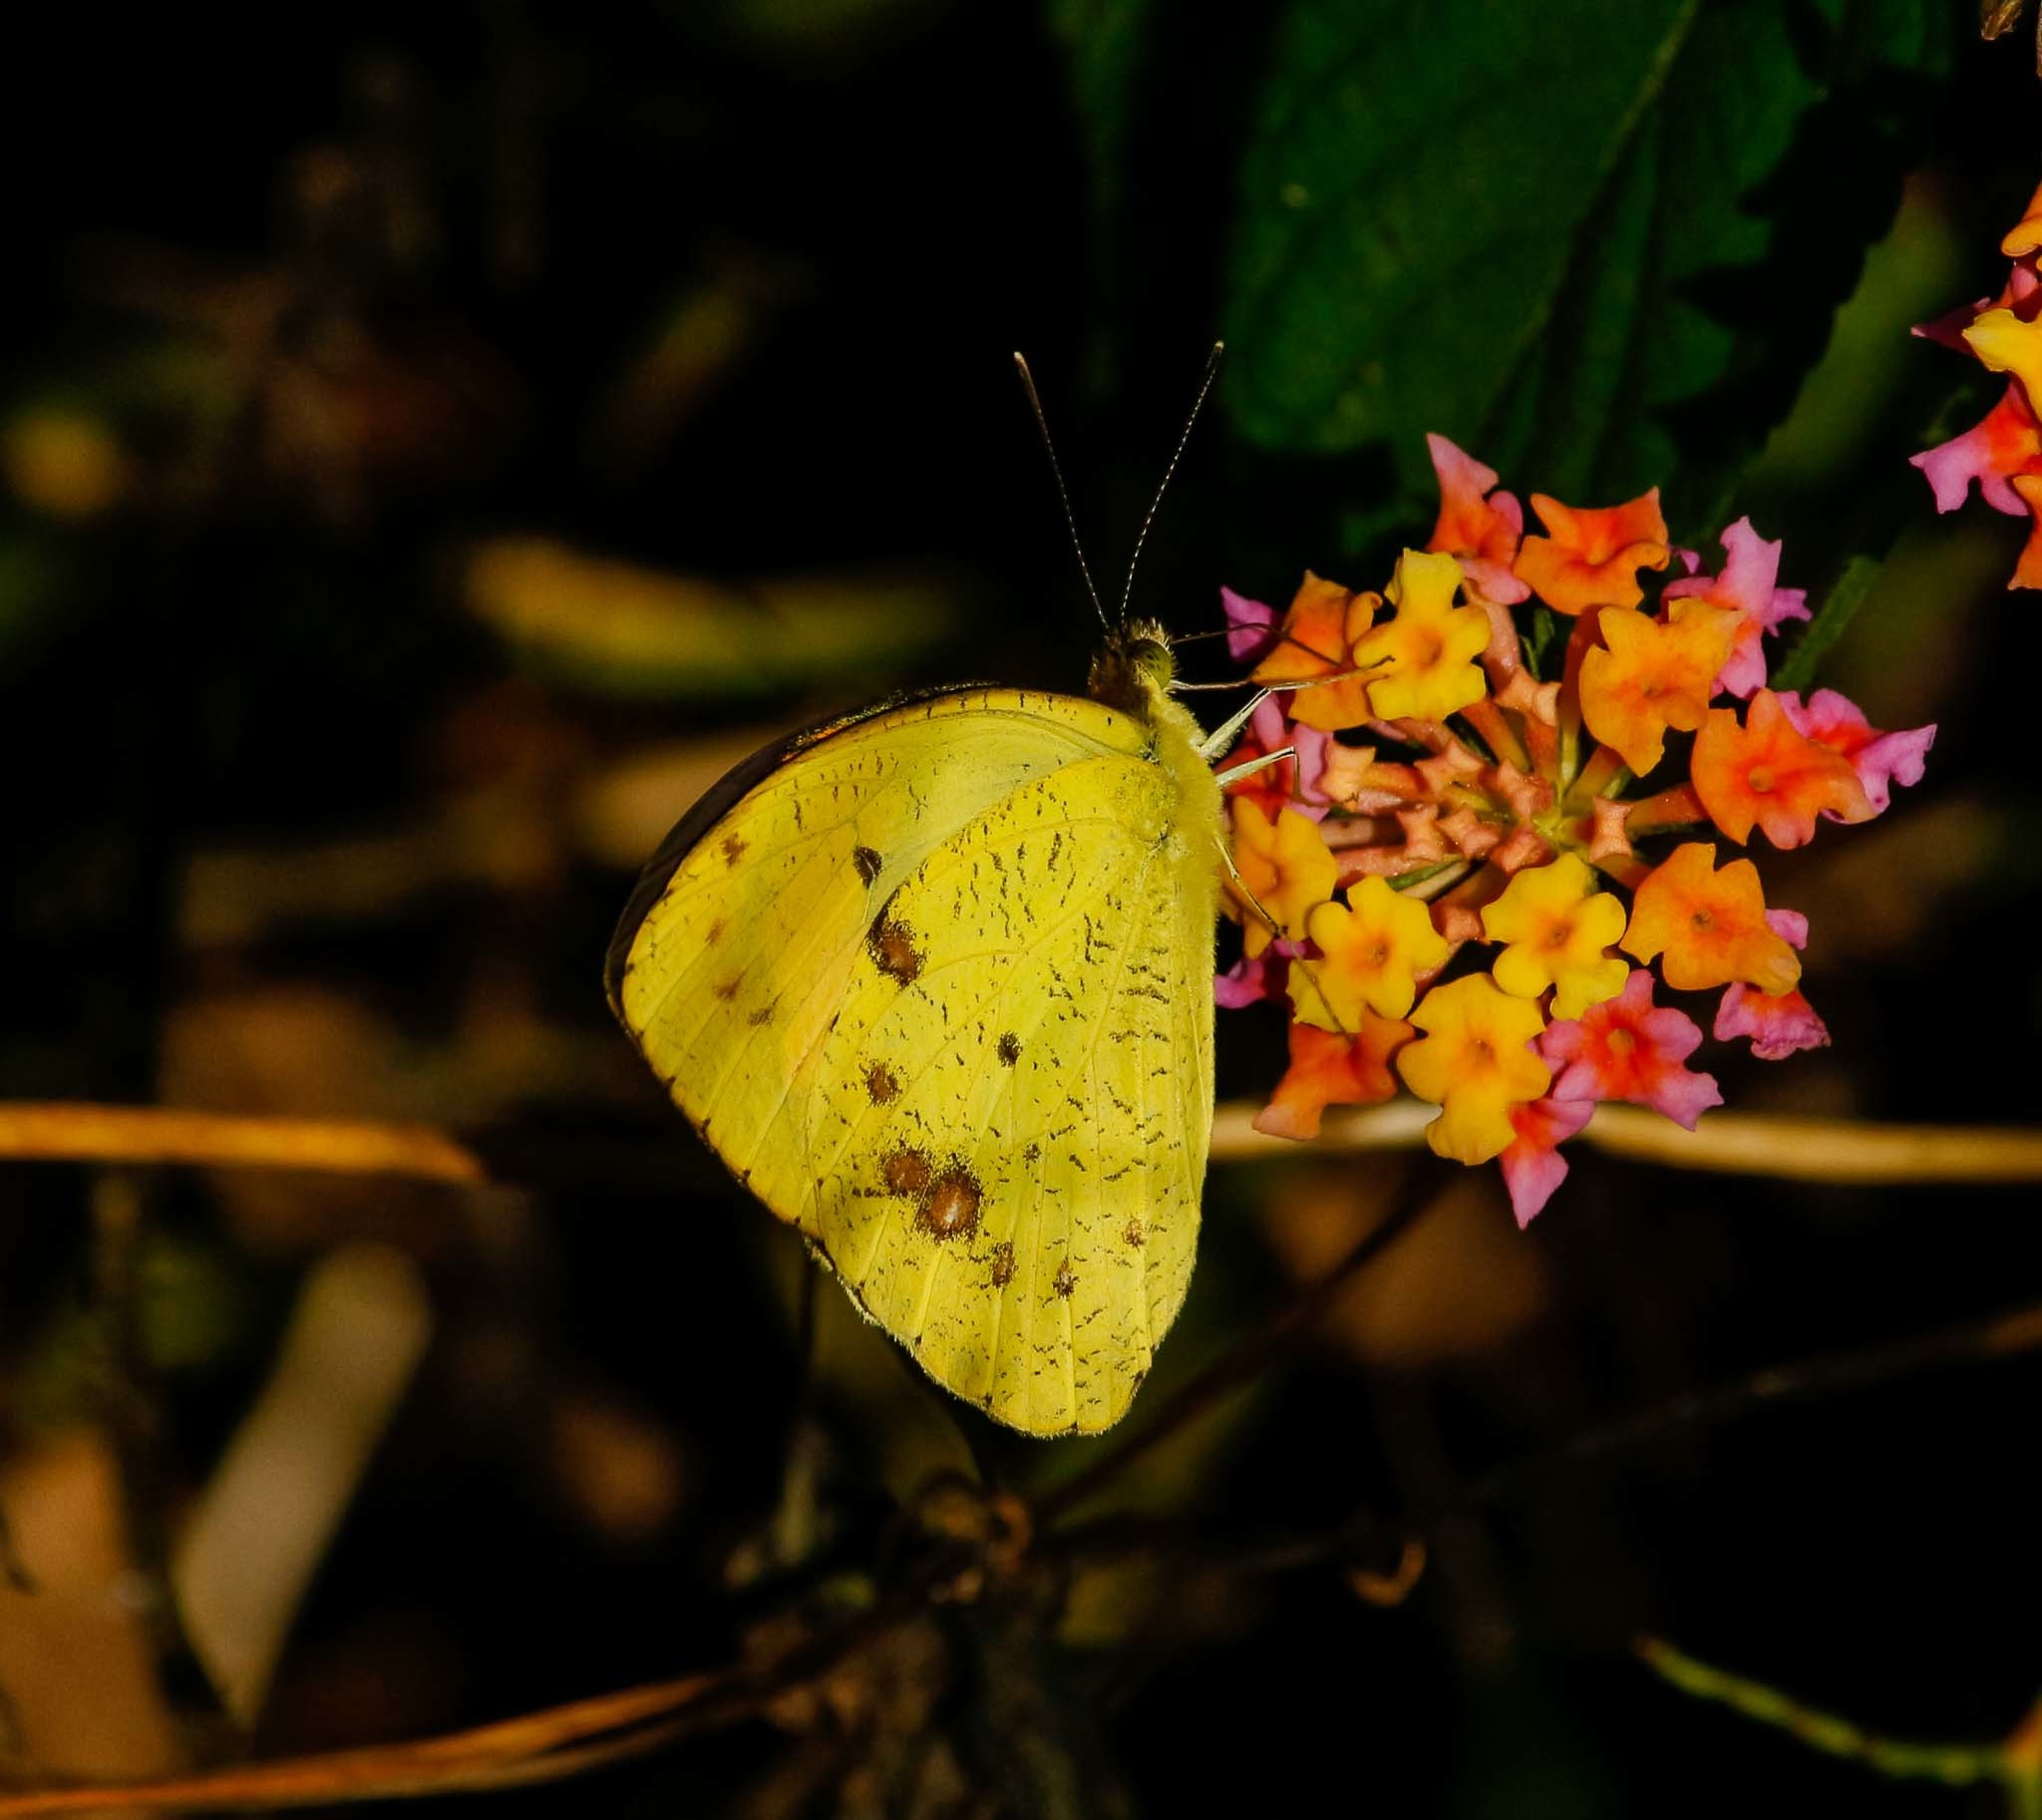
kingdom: Animalia
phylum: Arthropoda
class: Insecta
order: Lepidoptera
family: Pieridae
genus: Ixias
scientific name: Ixias pyrene
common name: Yellow orange tip
